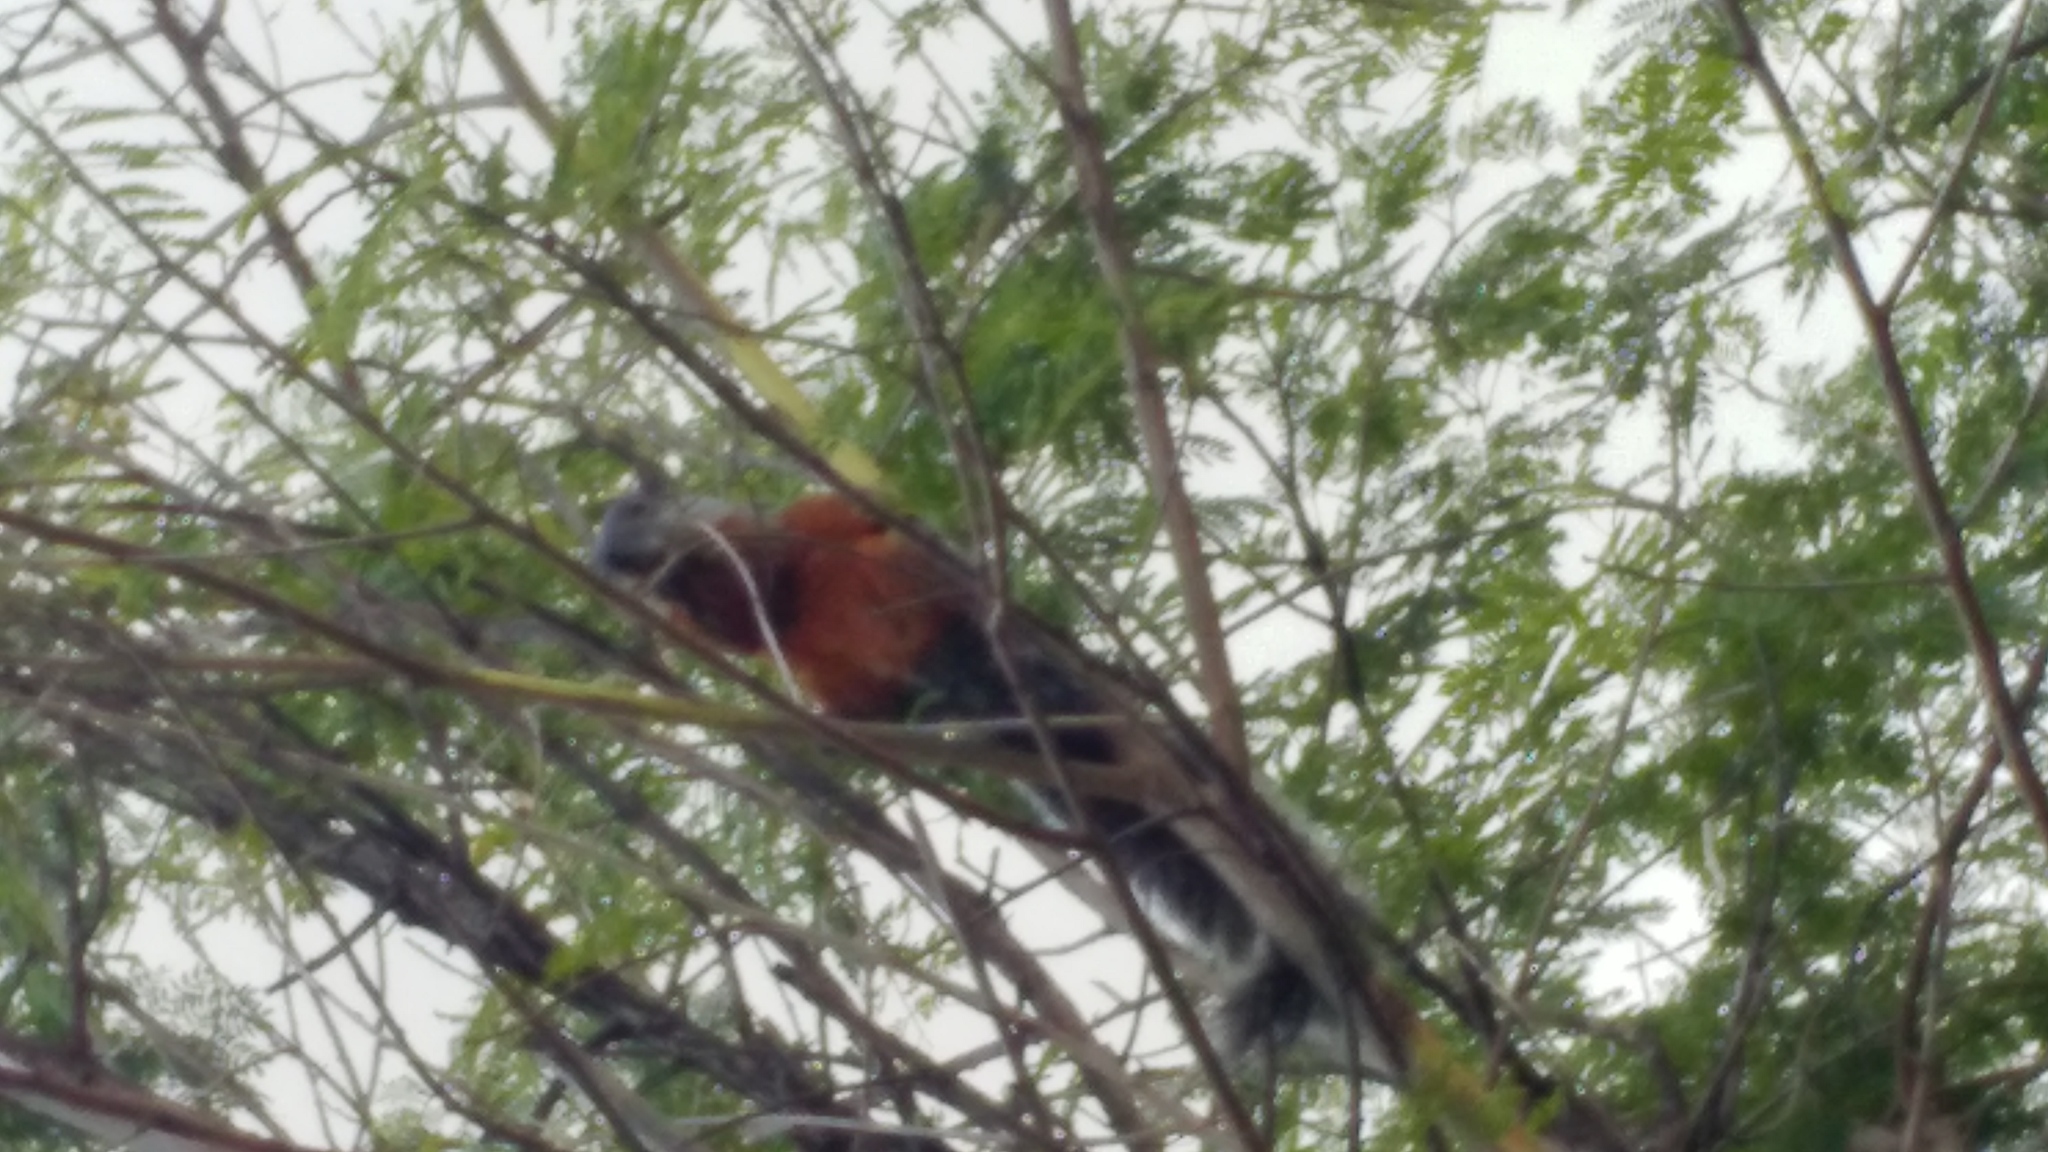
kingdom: Animalia
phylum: Chordata
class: Mammalia
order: Rodentia
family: Sciuridae
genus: Sciurus
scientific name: Sciurus aureogaster
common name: Red-bellied squirrel
